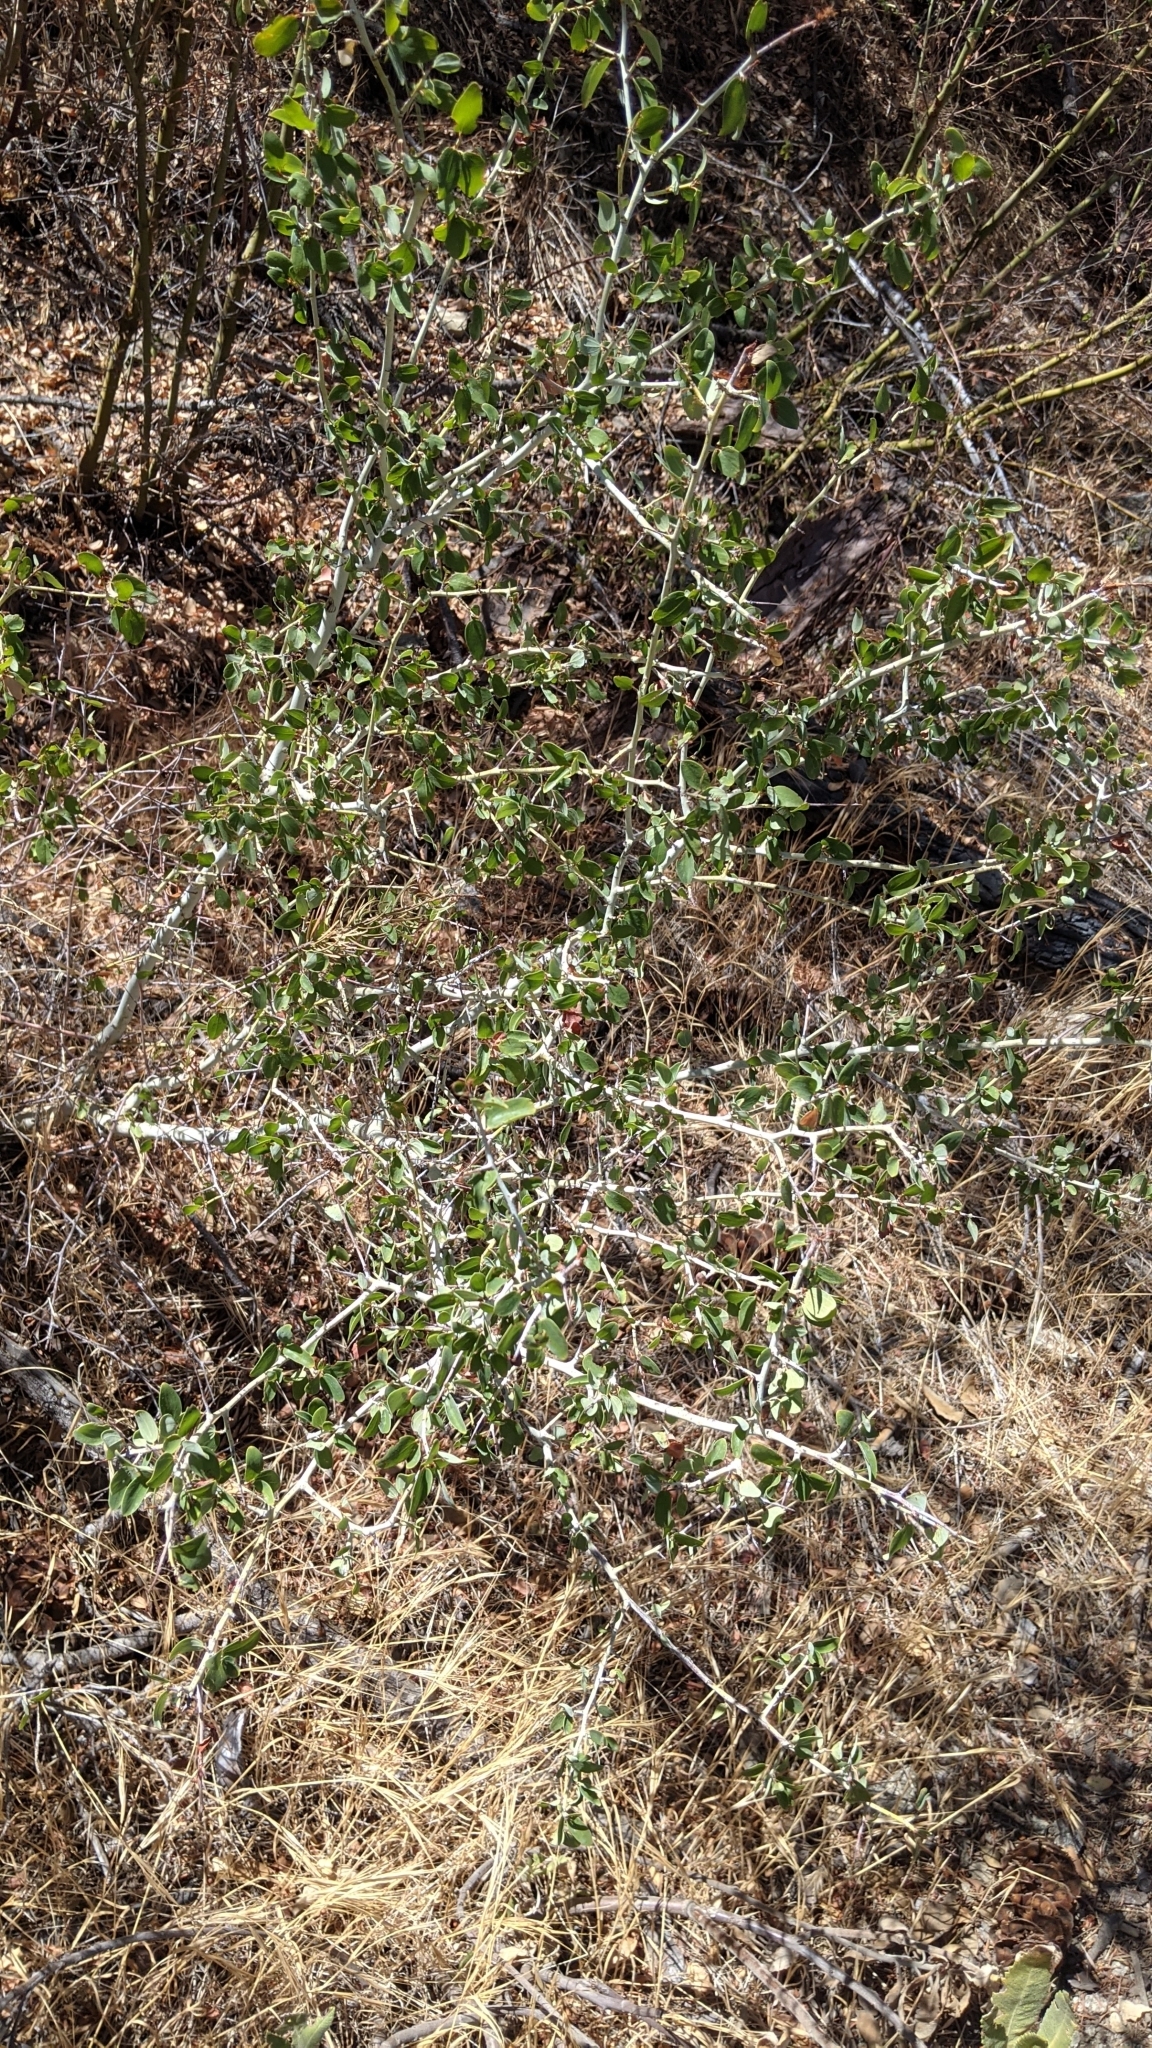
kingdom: Plantae
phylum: Tracheophyta
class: Magnoliopsida
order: Rosales
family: Rhamnaceae
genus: Ceanothus
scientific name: Ceanothus leucodermis
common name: Chaparral whitethorn
